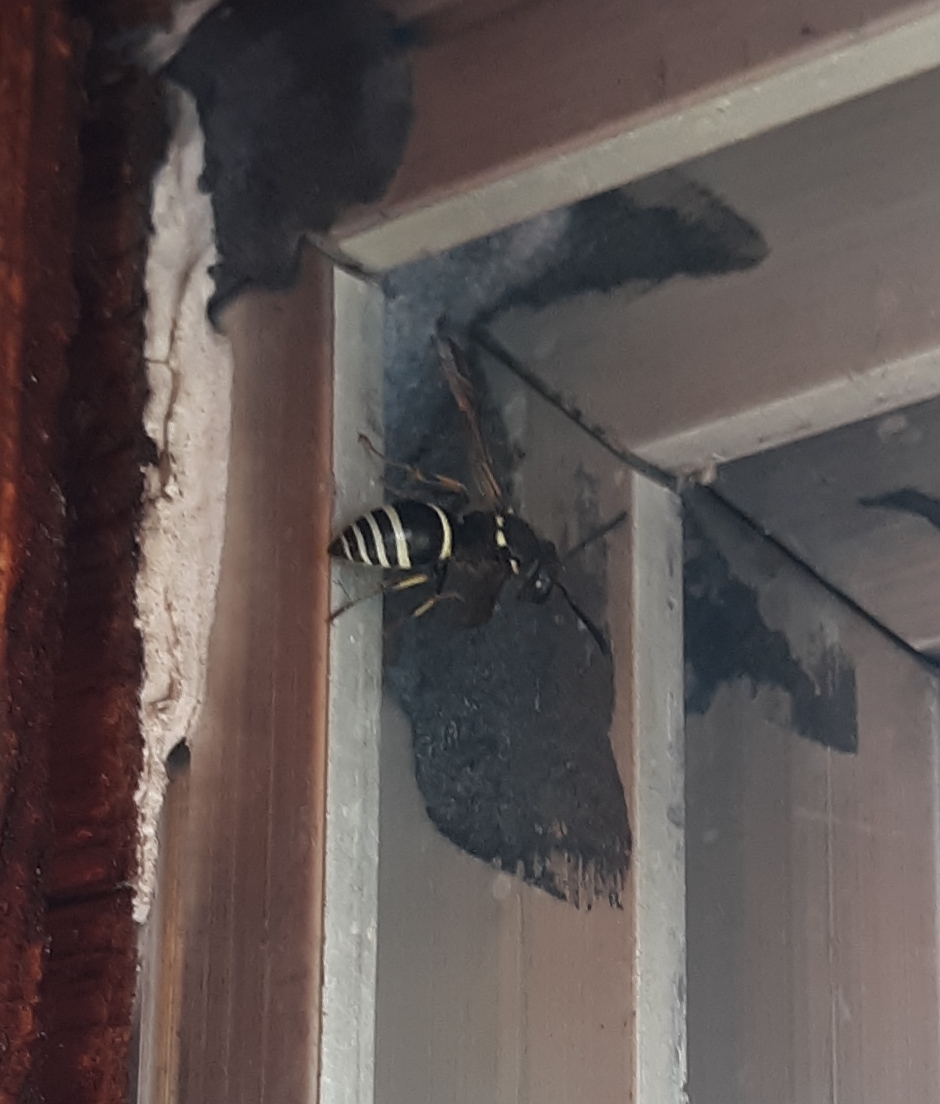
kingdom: Animalia
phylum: Arthropoda
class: Insecta
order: Hymenoptera
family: Vespidae
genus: Ancistrocerus
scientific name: Ancistrocerus albophaleratus
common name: White-banded potter wasp
